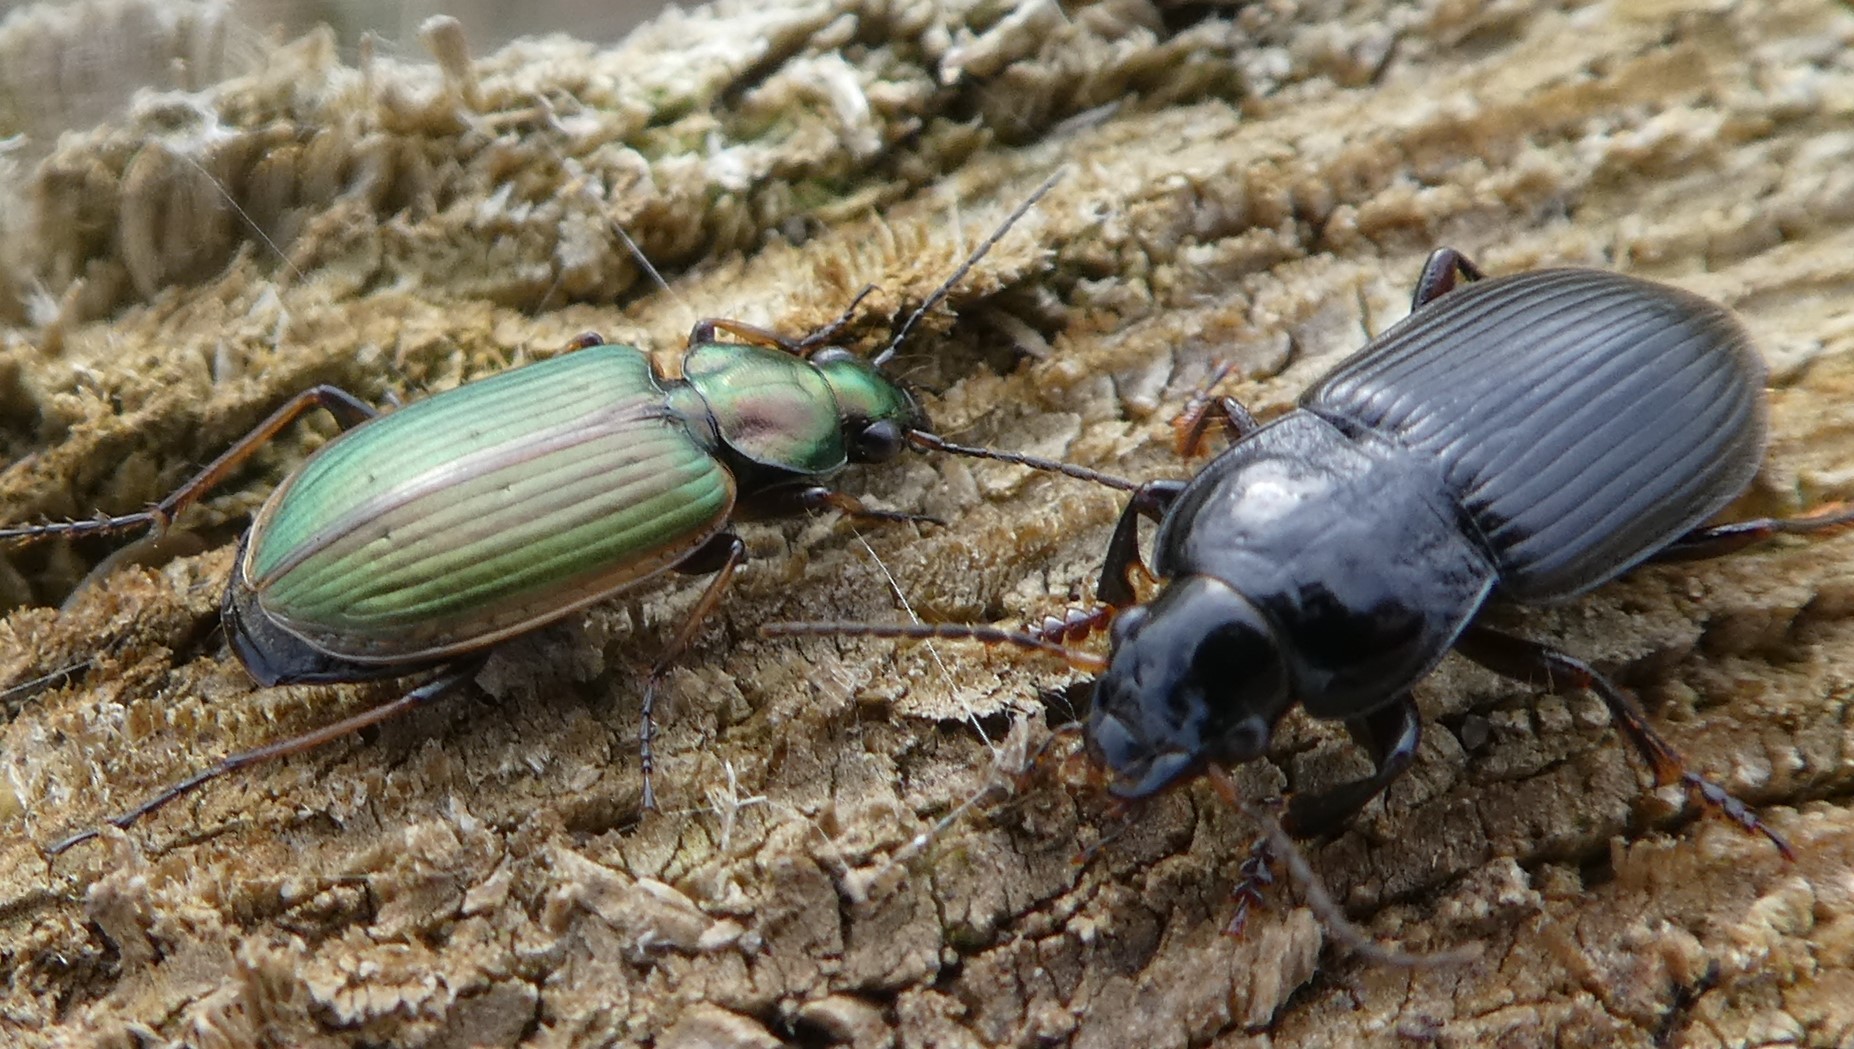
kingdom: Animalia
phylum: Arthropoda
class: Insecta
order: Coleoptera
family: Carabidae
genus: Agonum
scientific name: Agonum marginatum
